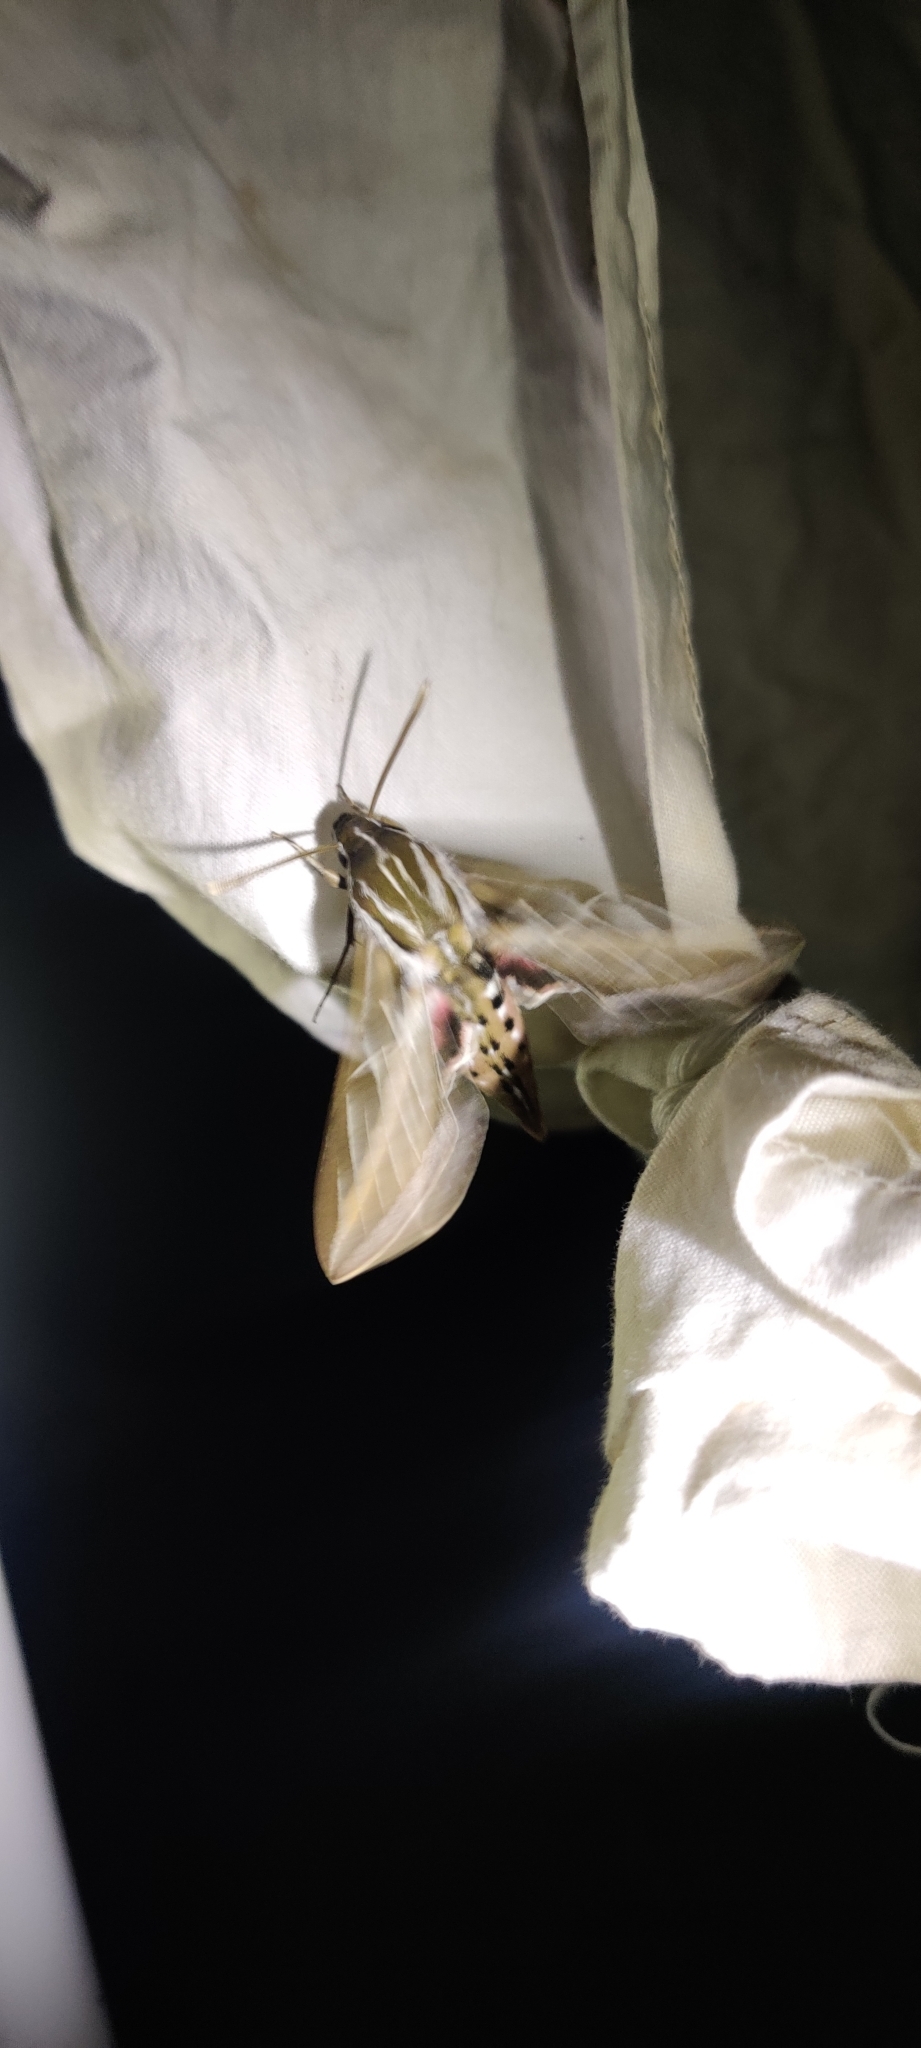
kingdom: Animalia
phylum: Arthropoda
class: Insecta
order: Lepidoptera
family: Sphingidae
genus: Hyles
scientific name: Hyles lineata
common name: White-lined sphinx
